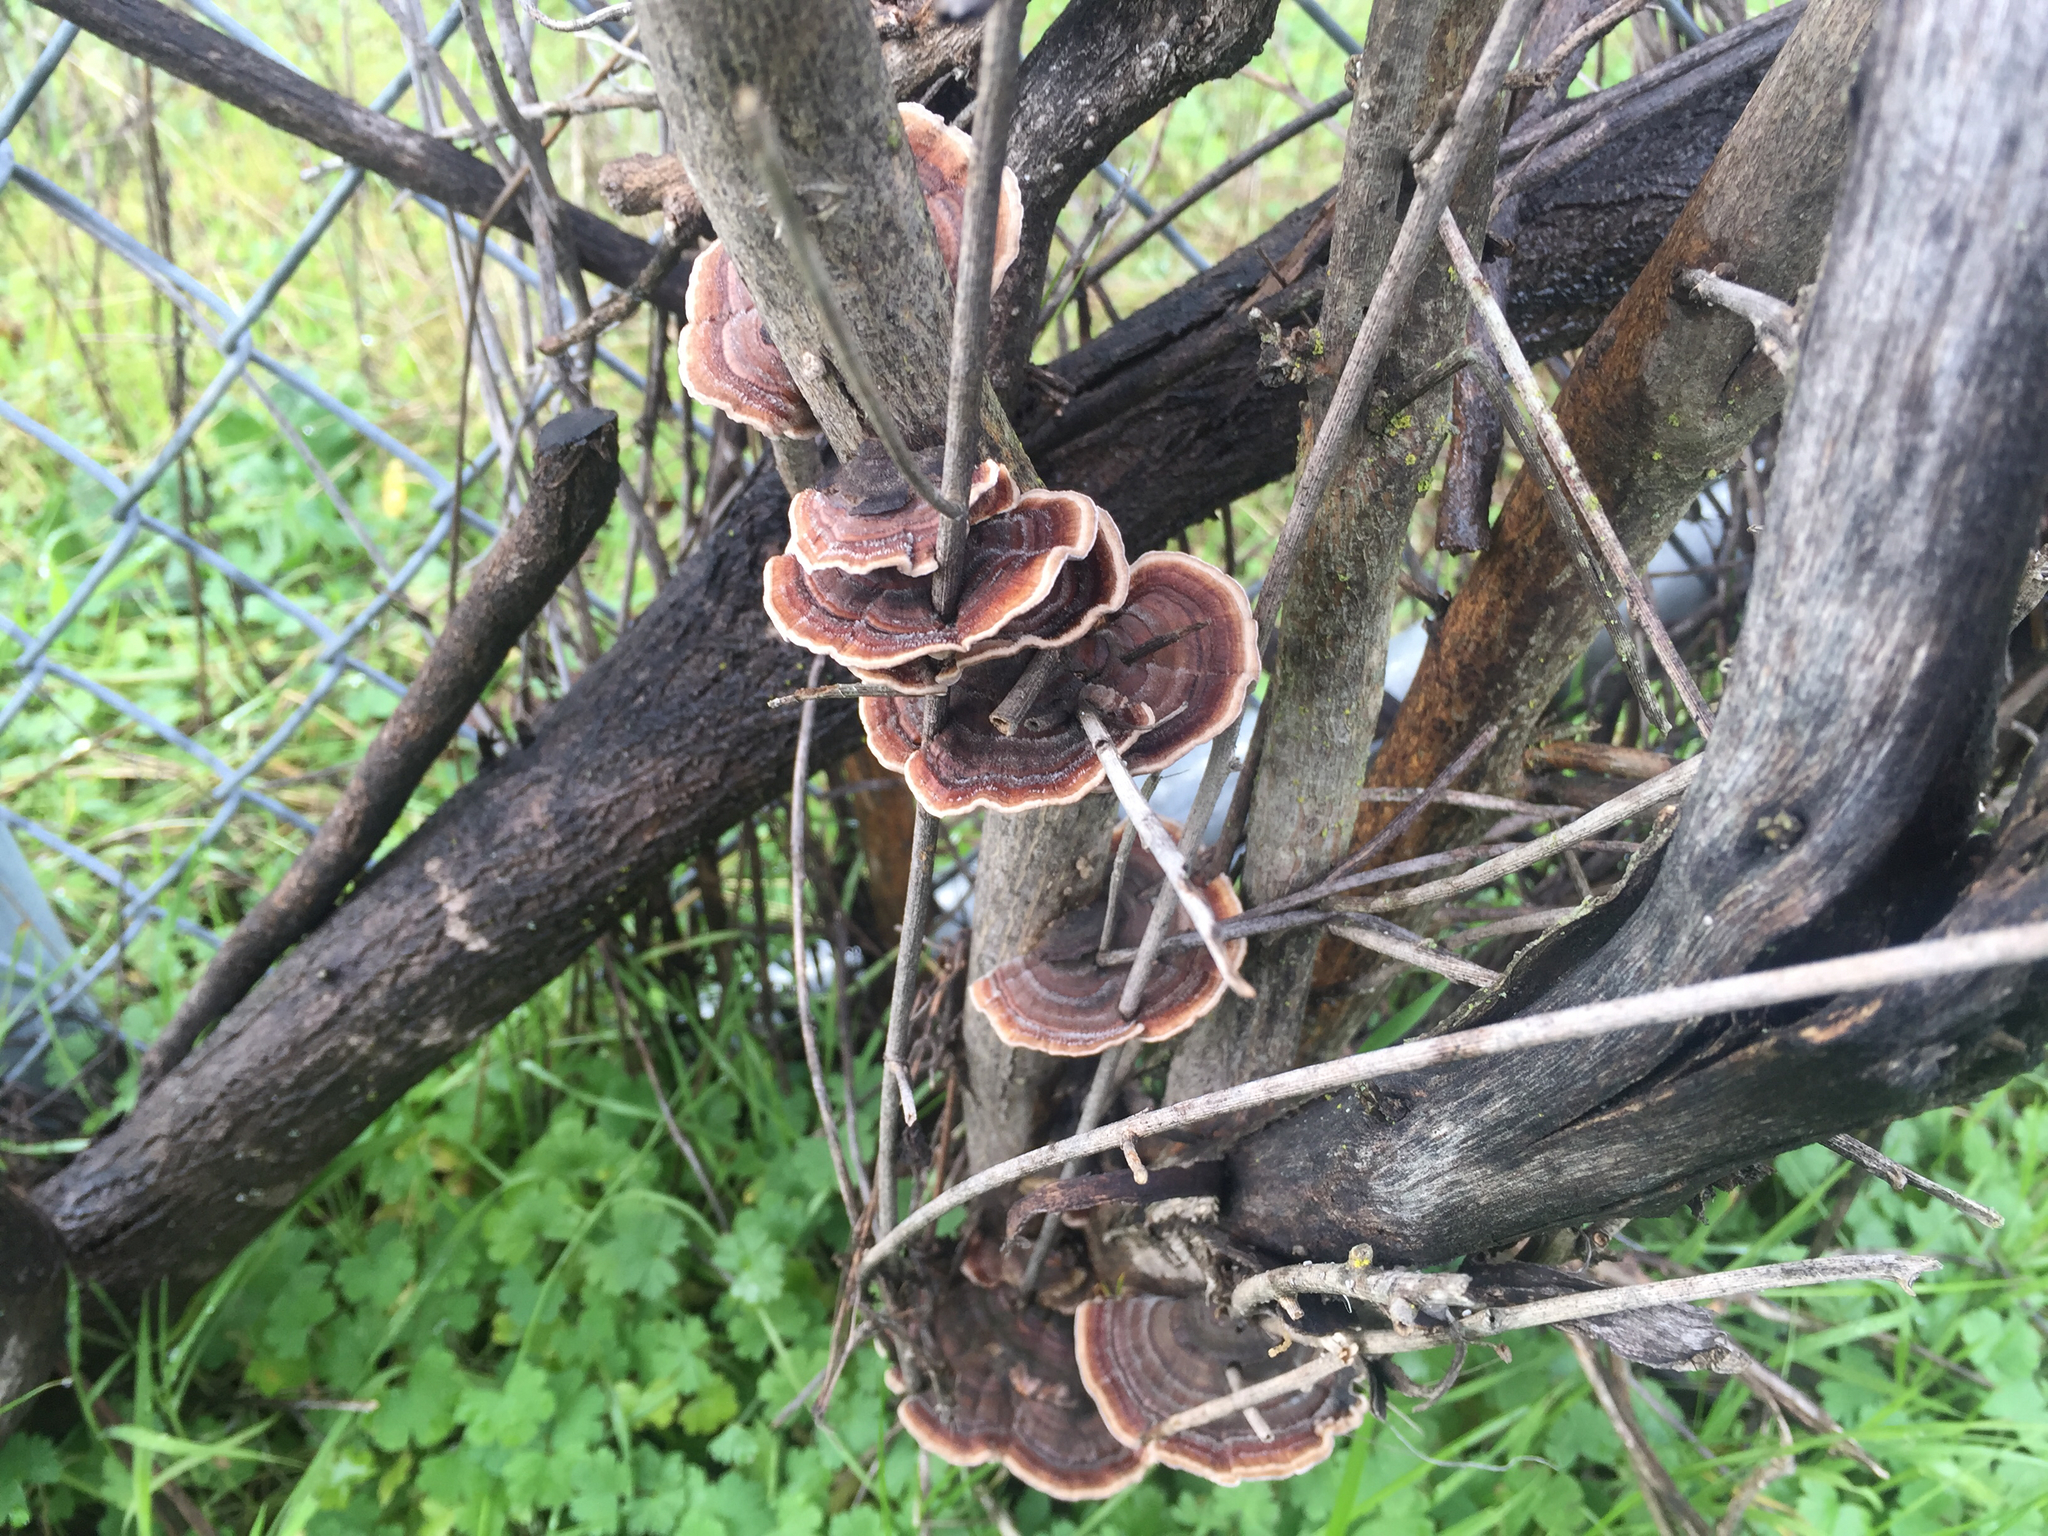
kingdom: Fungi
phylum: Basidiomycota
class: Agaricomycetes
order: Polyporales
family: Polyporaceae
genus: Trametes
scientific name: Trametes versicolor
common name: Turkeytail
